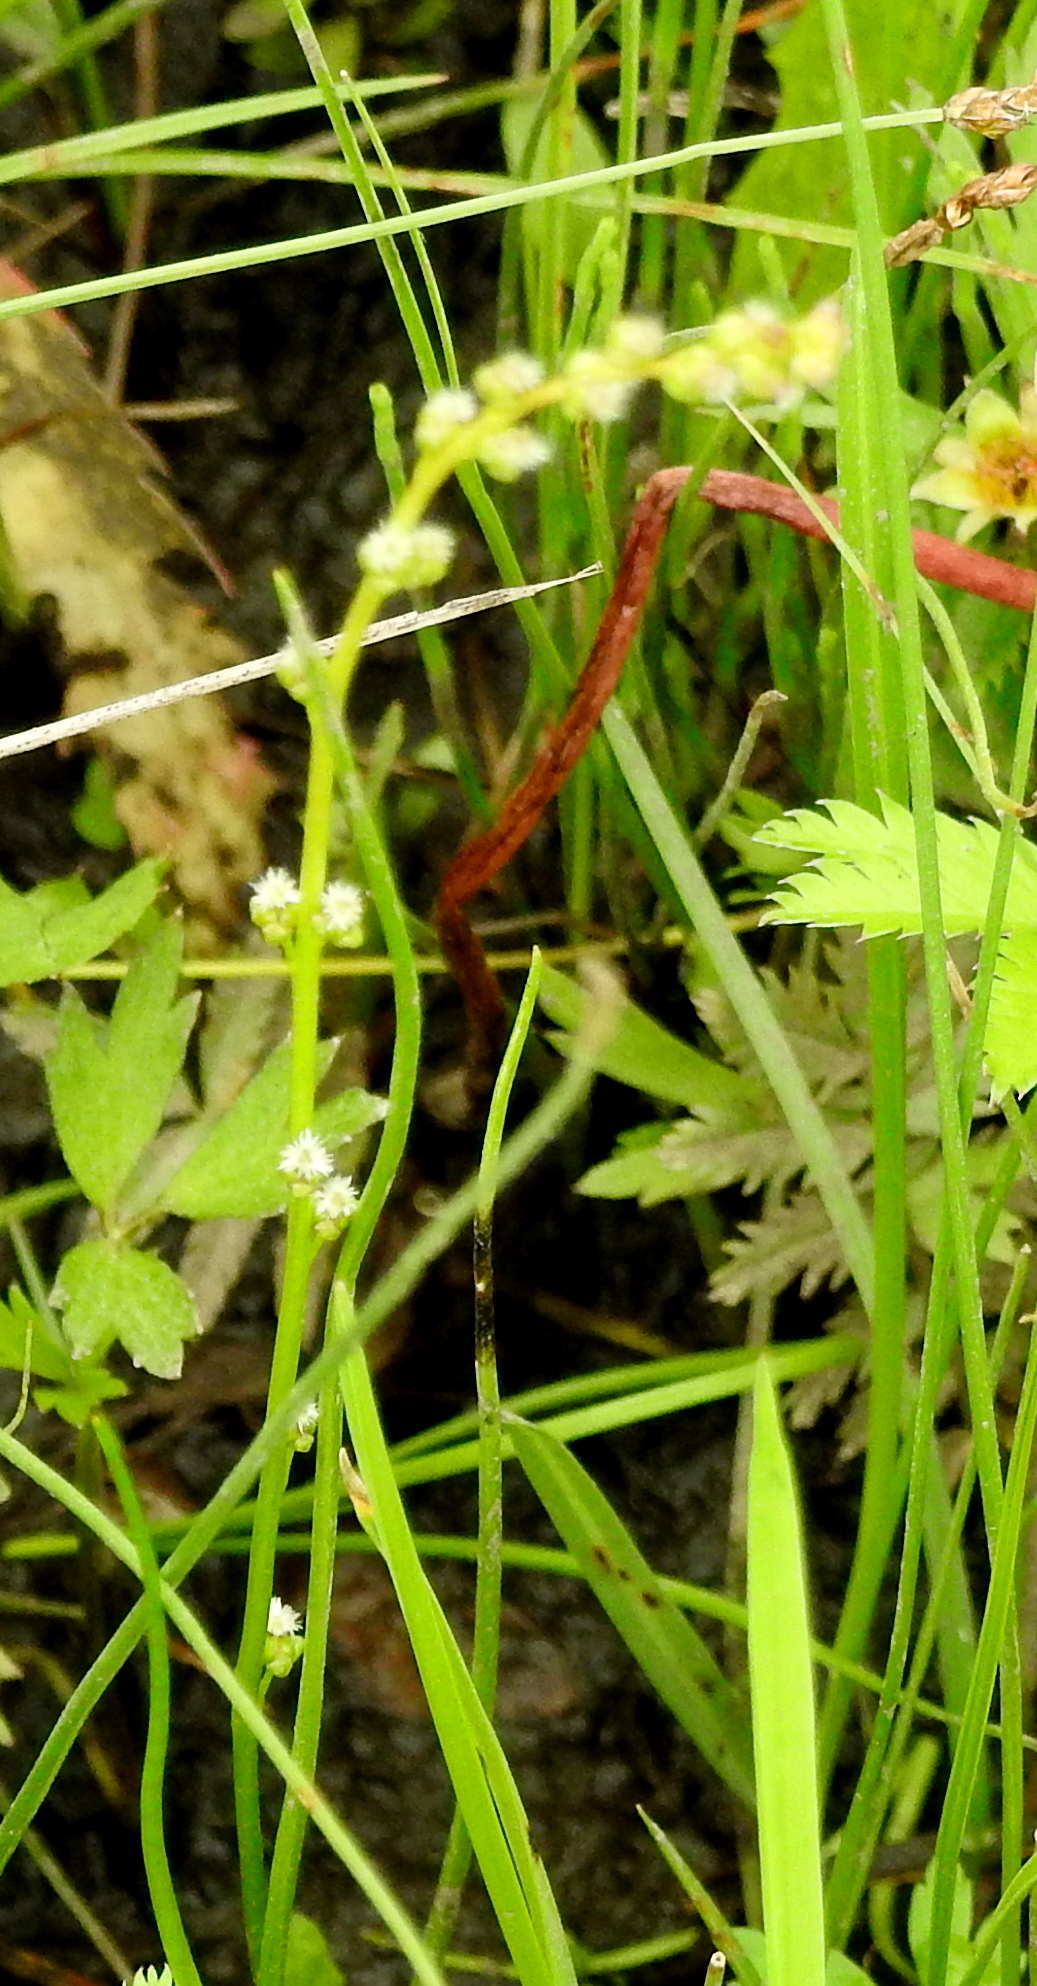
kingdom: Plantae
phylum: Tracheophyta
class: Liliopsida
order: Alismatales
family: Juncaginaceae
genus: Triglochin
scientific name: Triglochin palustris
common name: Marsh arrowgrass
